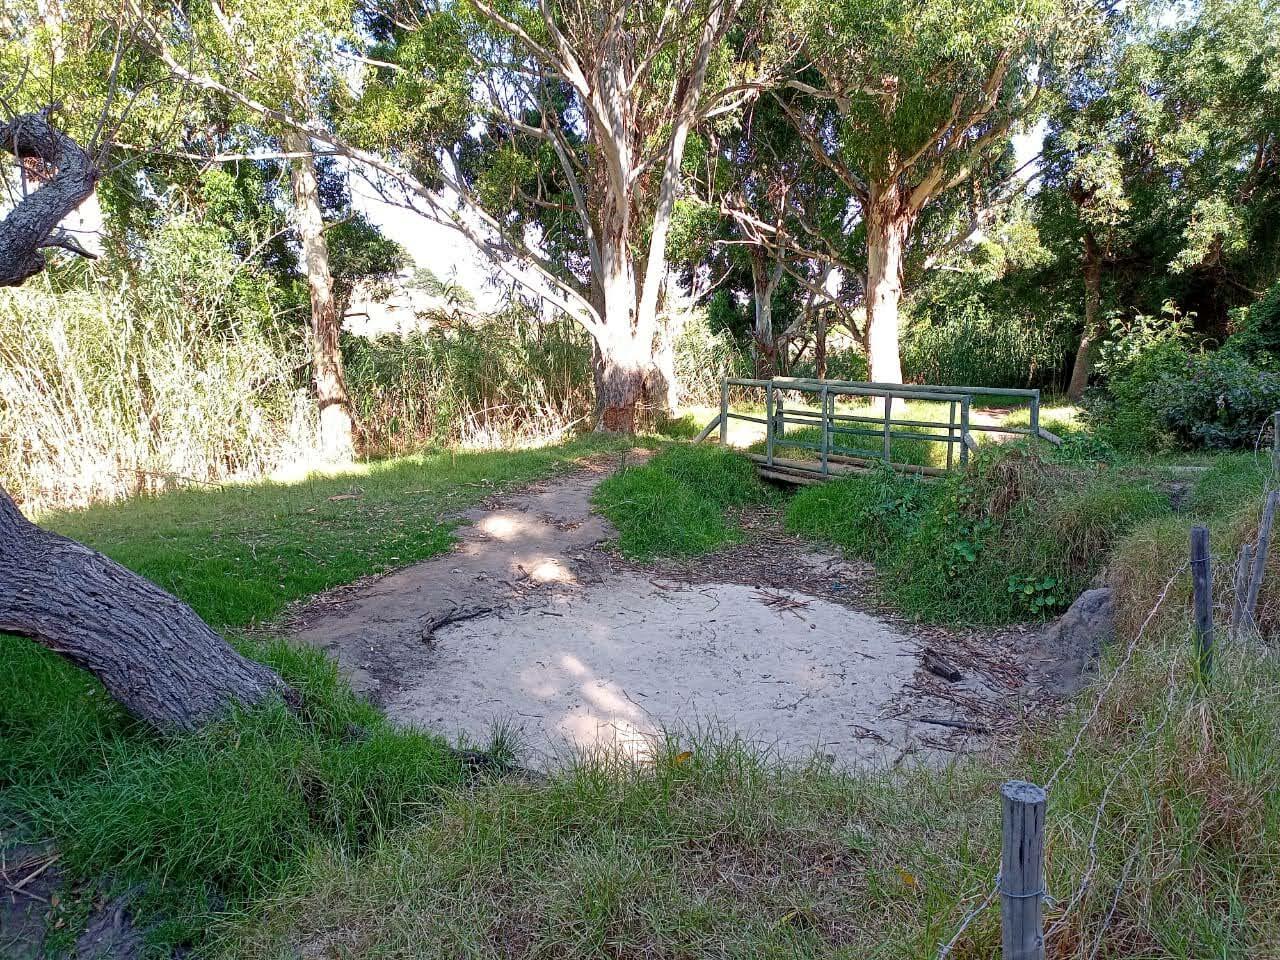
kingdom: Plantae
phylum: Tracheophyta
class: Liliopsida
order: Poales
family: Poaceae
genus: Cenchrus
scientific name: Cenchrus clandestinus
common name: Kikuyugrass
